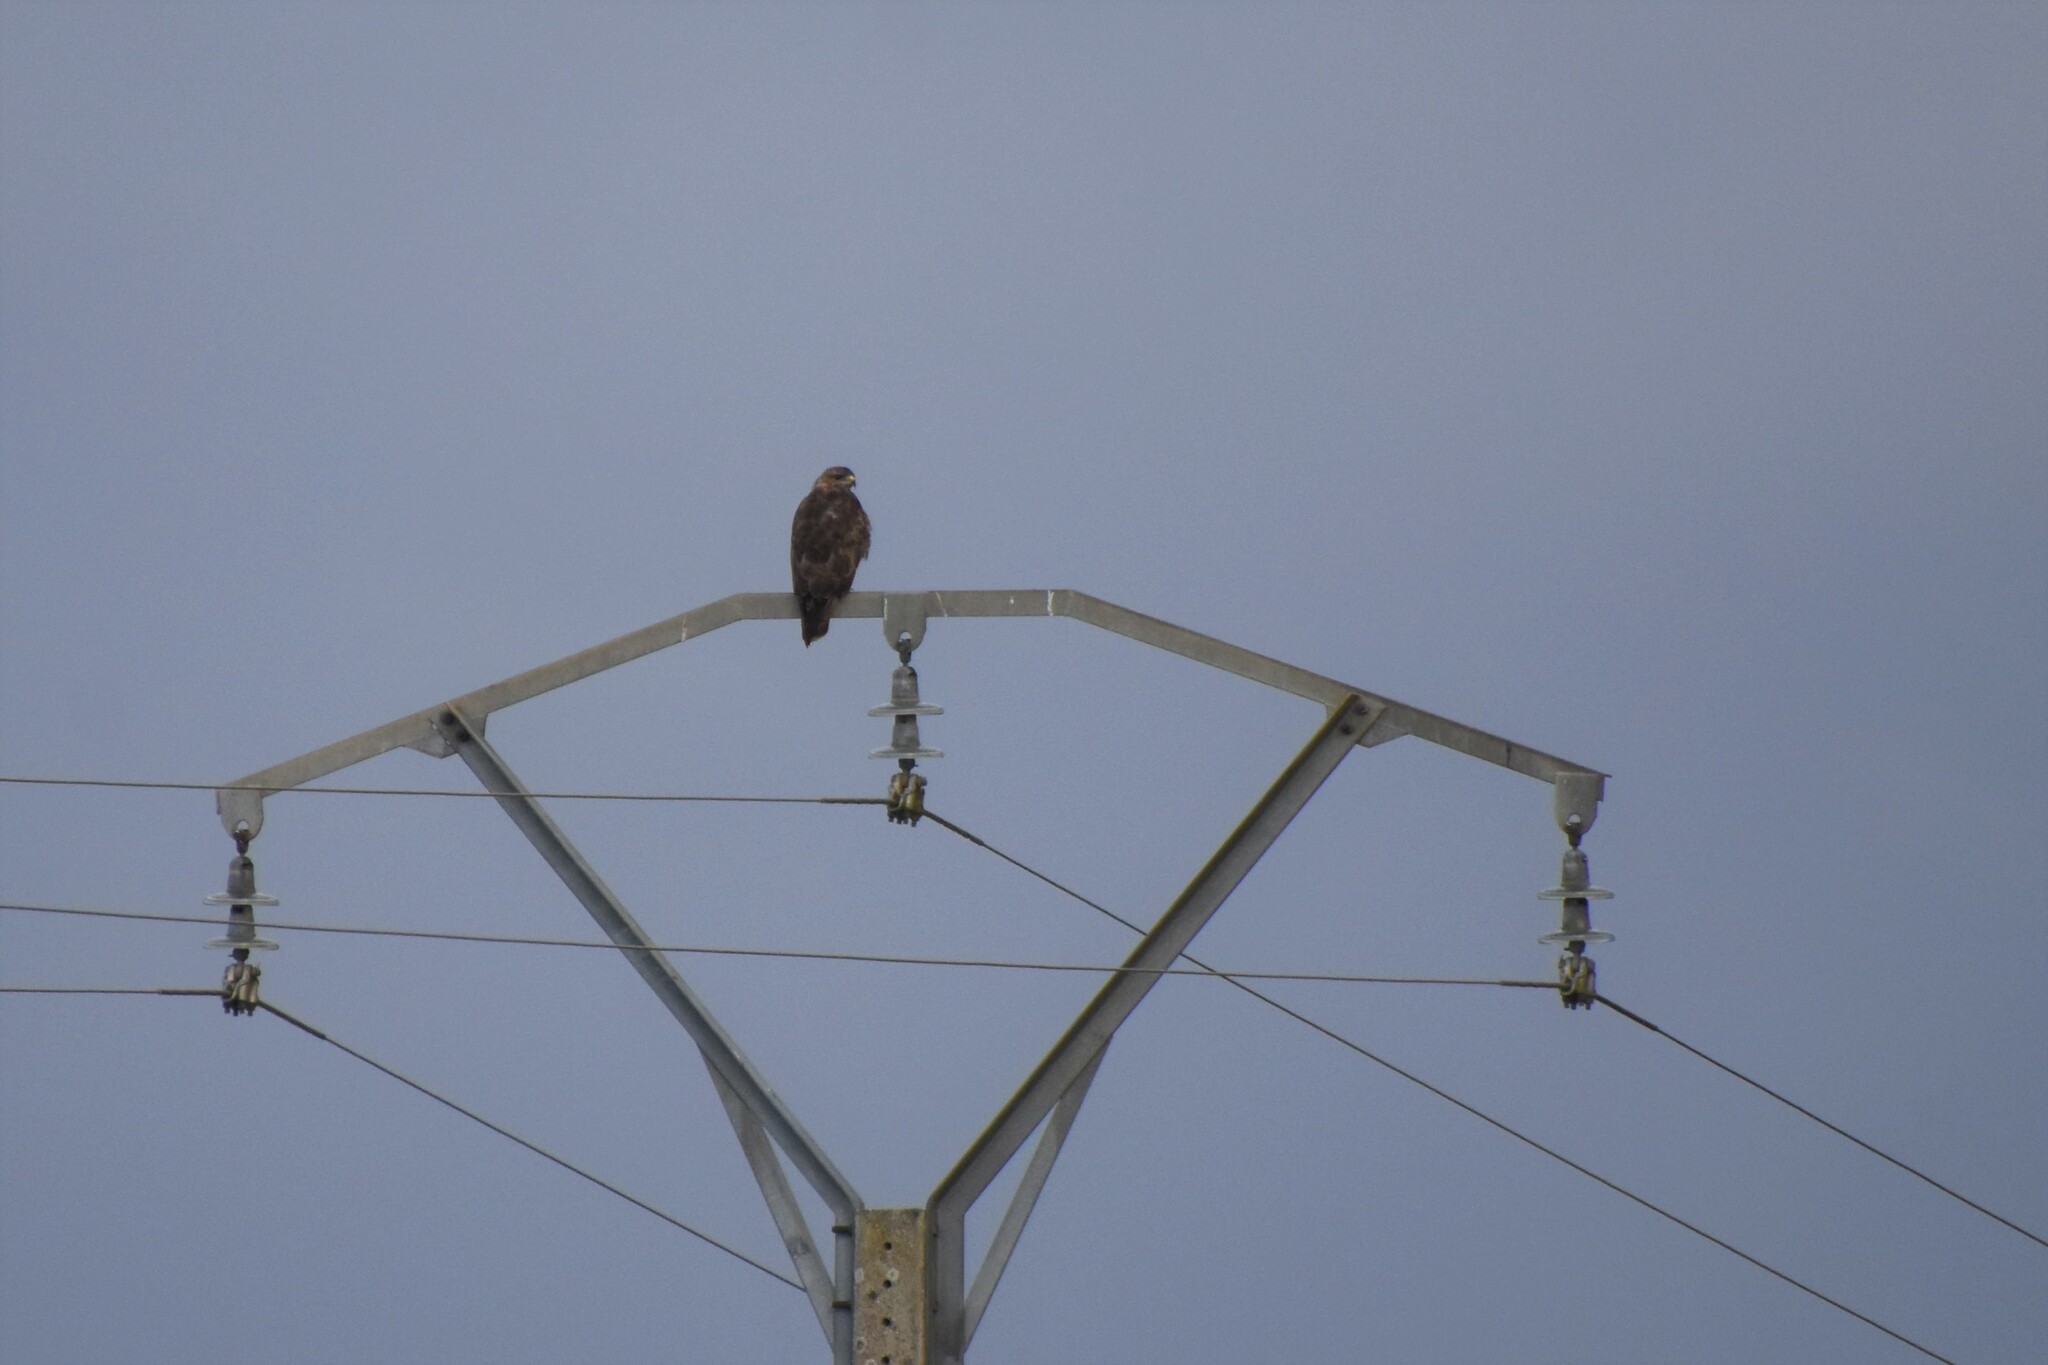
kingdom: Animalia
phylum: Chordata
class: Aves
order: Accipitriformes
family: Accipitridae
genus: Buteo
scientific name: Buteo buteo
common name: Common buzzard
